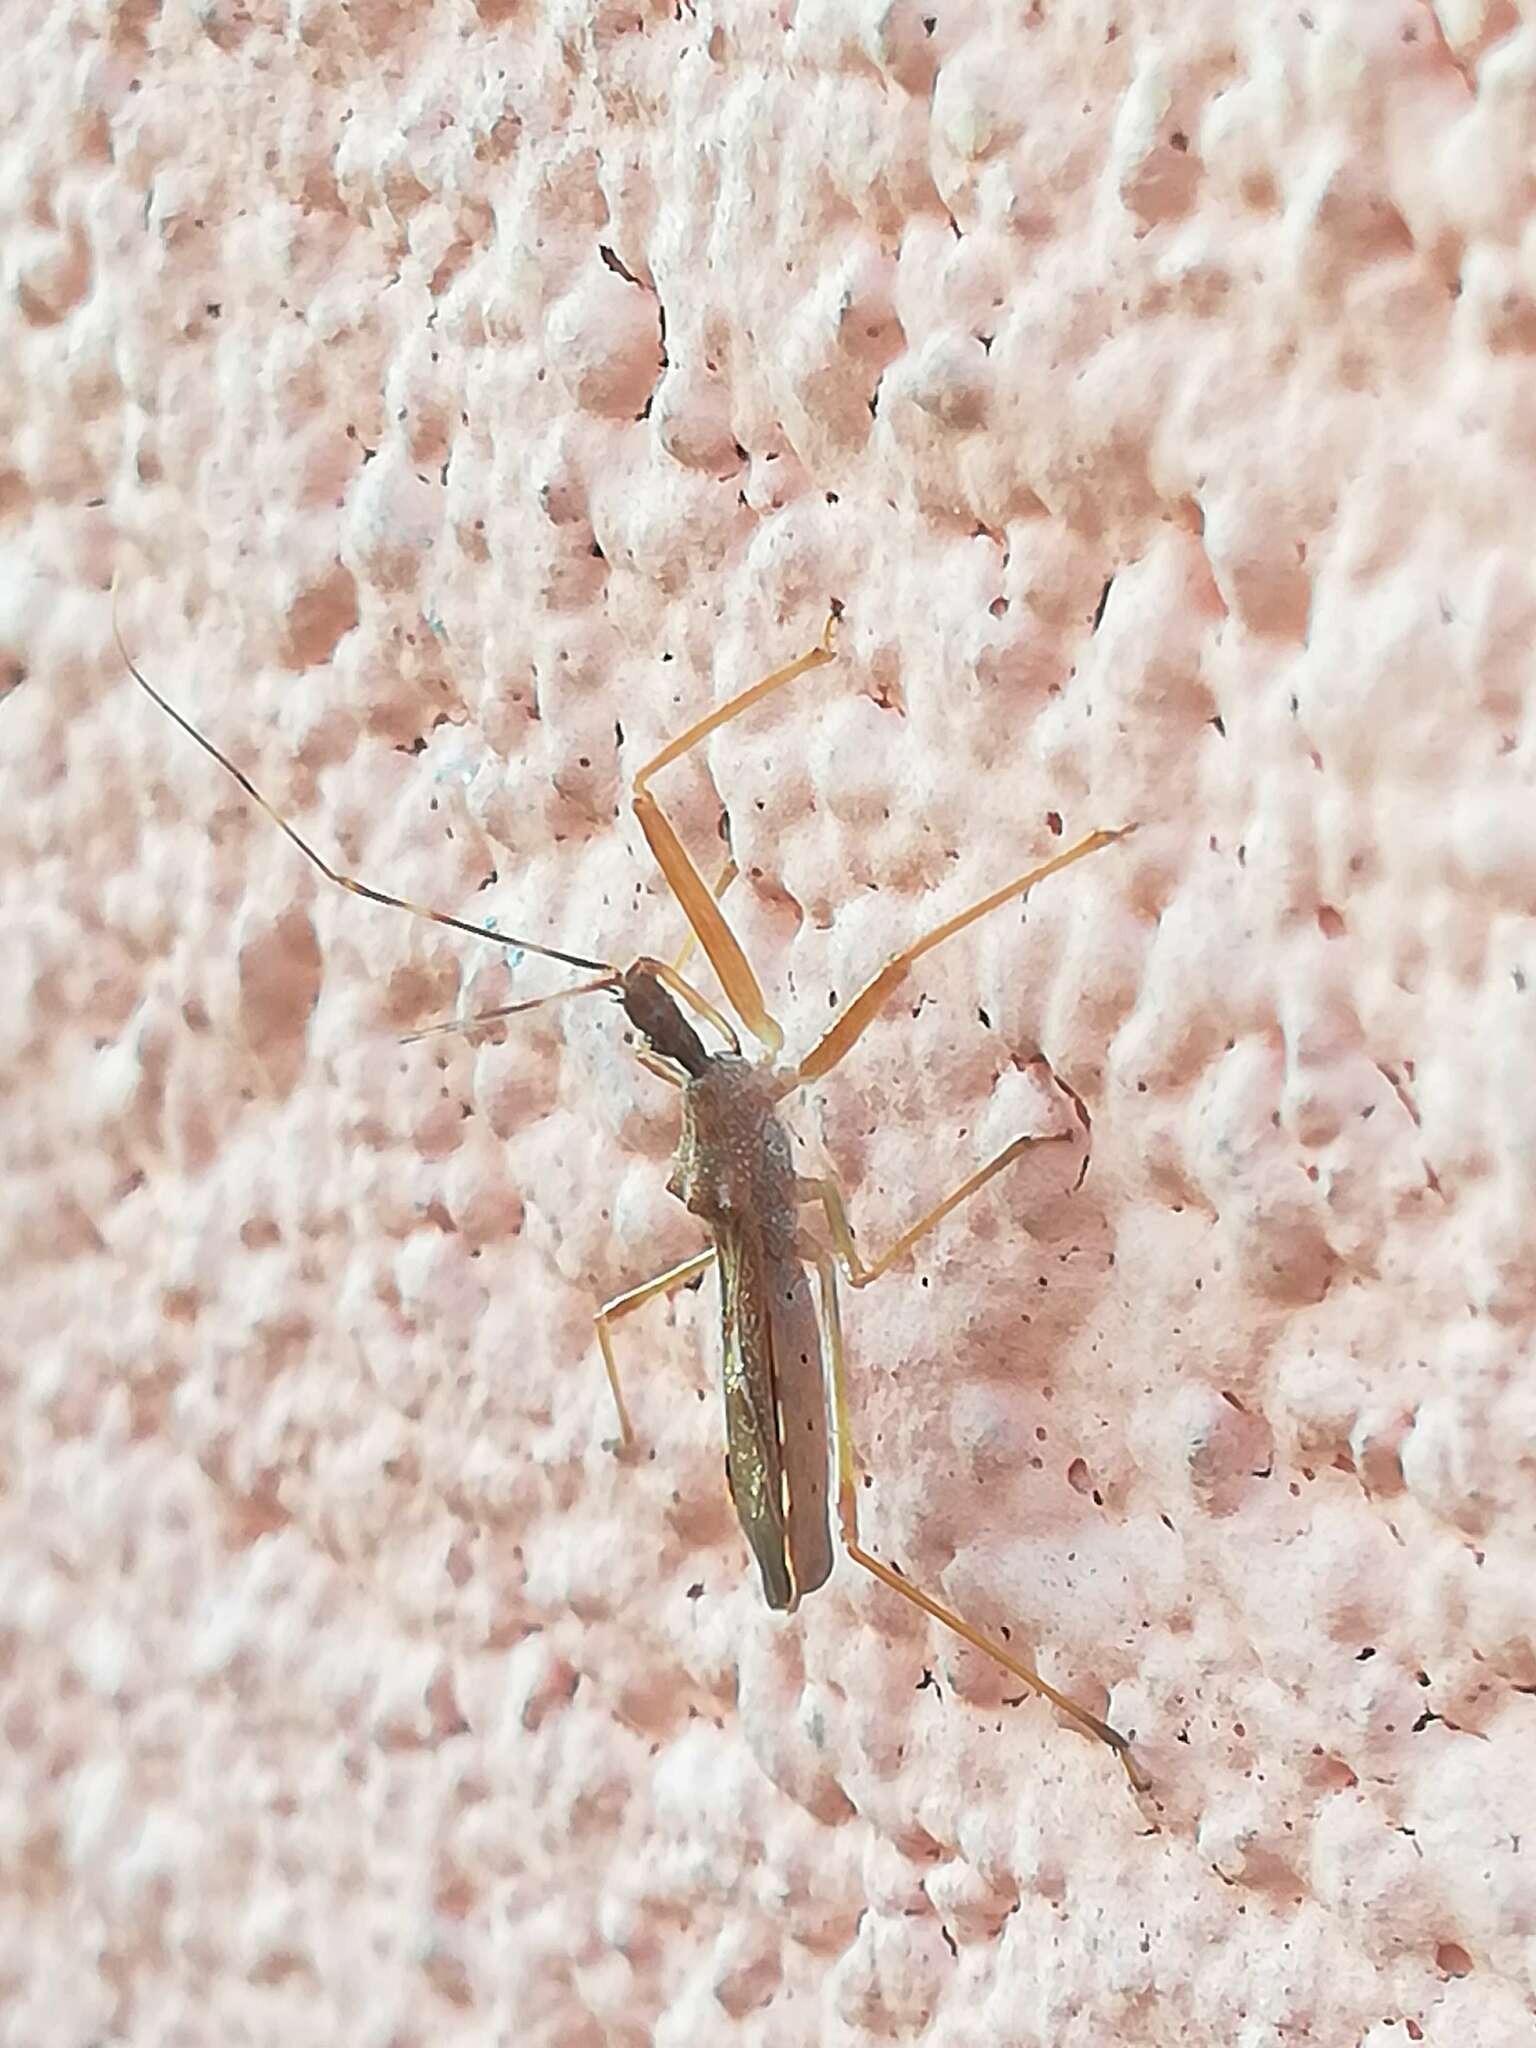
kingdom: Animalia
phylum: Arthropoda
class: Insecta
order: Hemiptera
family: Reduviidae
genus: Nagusta
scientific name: Nagusta goedelii
